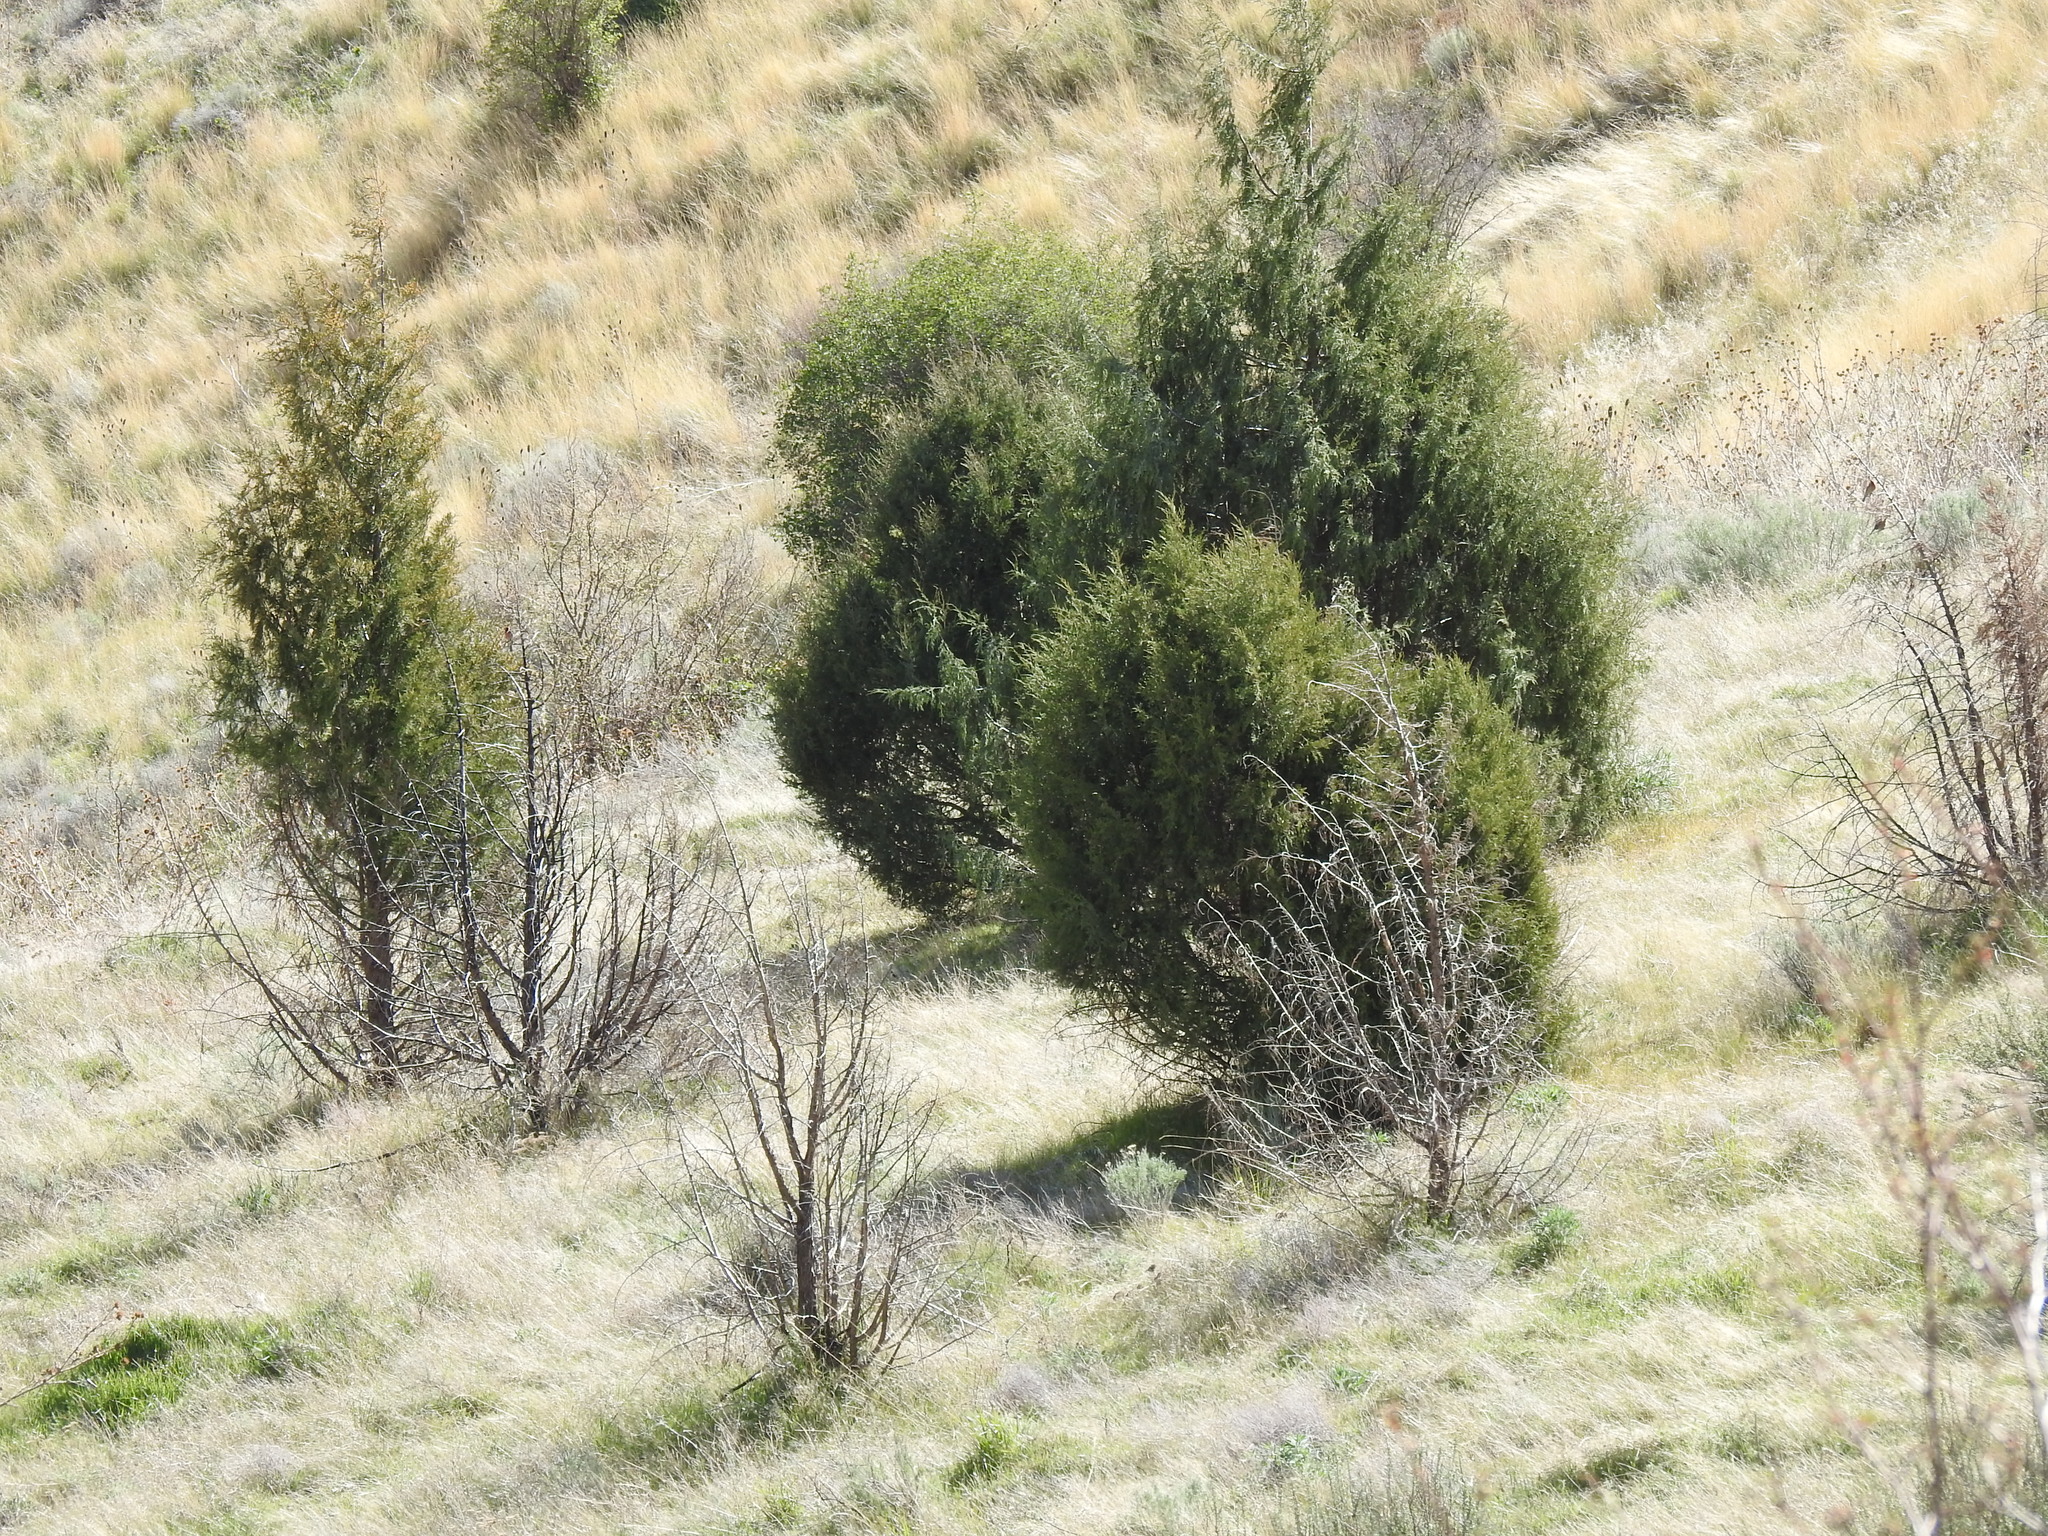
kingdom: Plantae
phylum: Tracheophyta
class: Pinopsida
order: Pinales
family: Cupressaceae
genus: Juniperus
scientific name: Juniperus scopulorum
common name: Rocky mountain juniper
